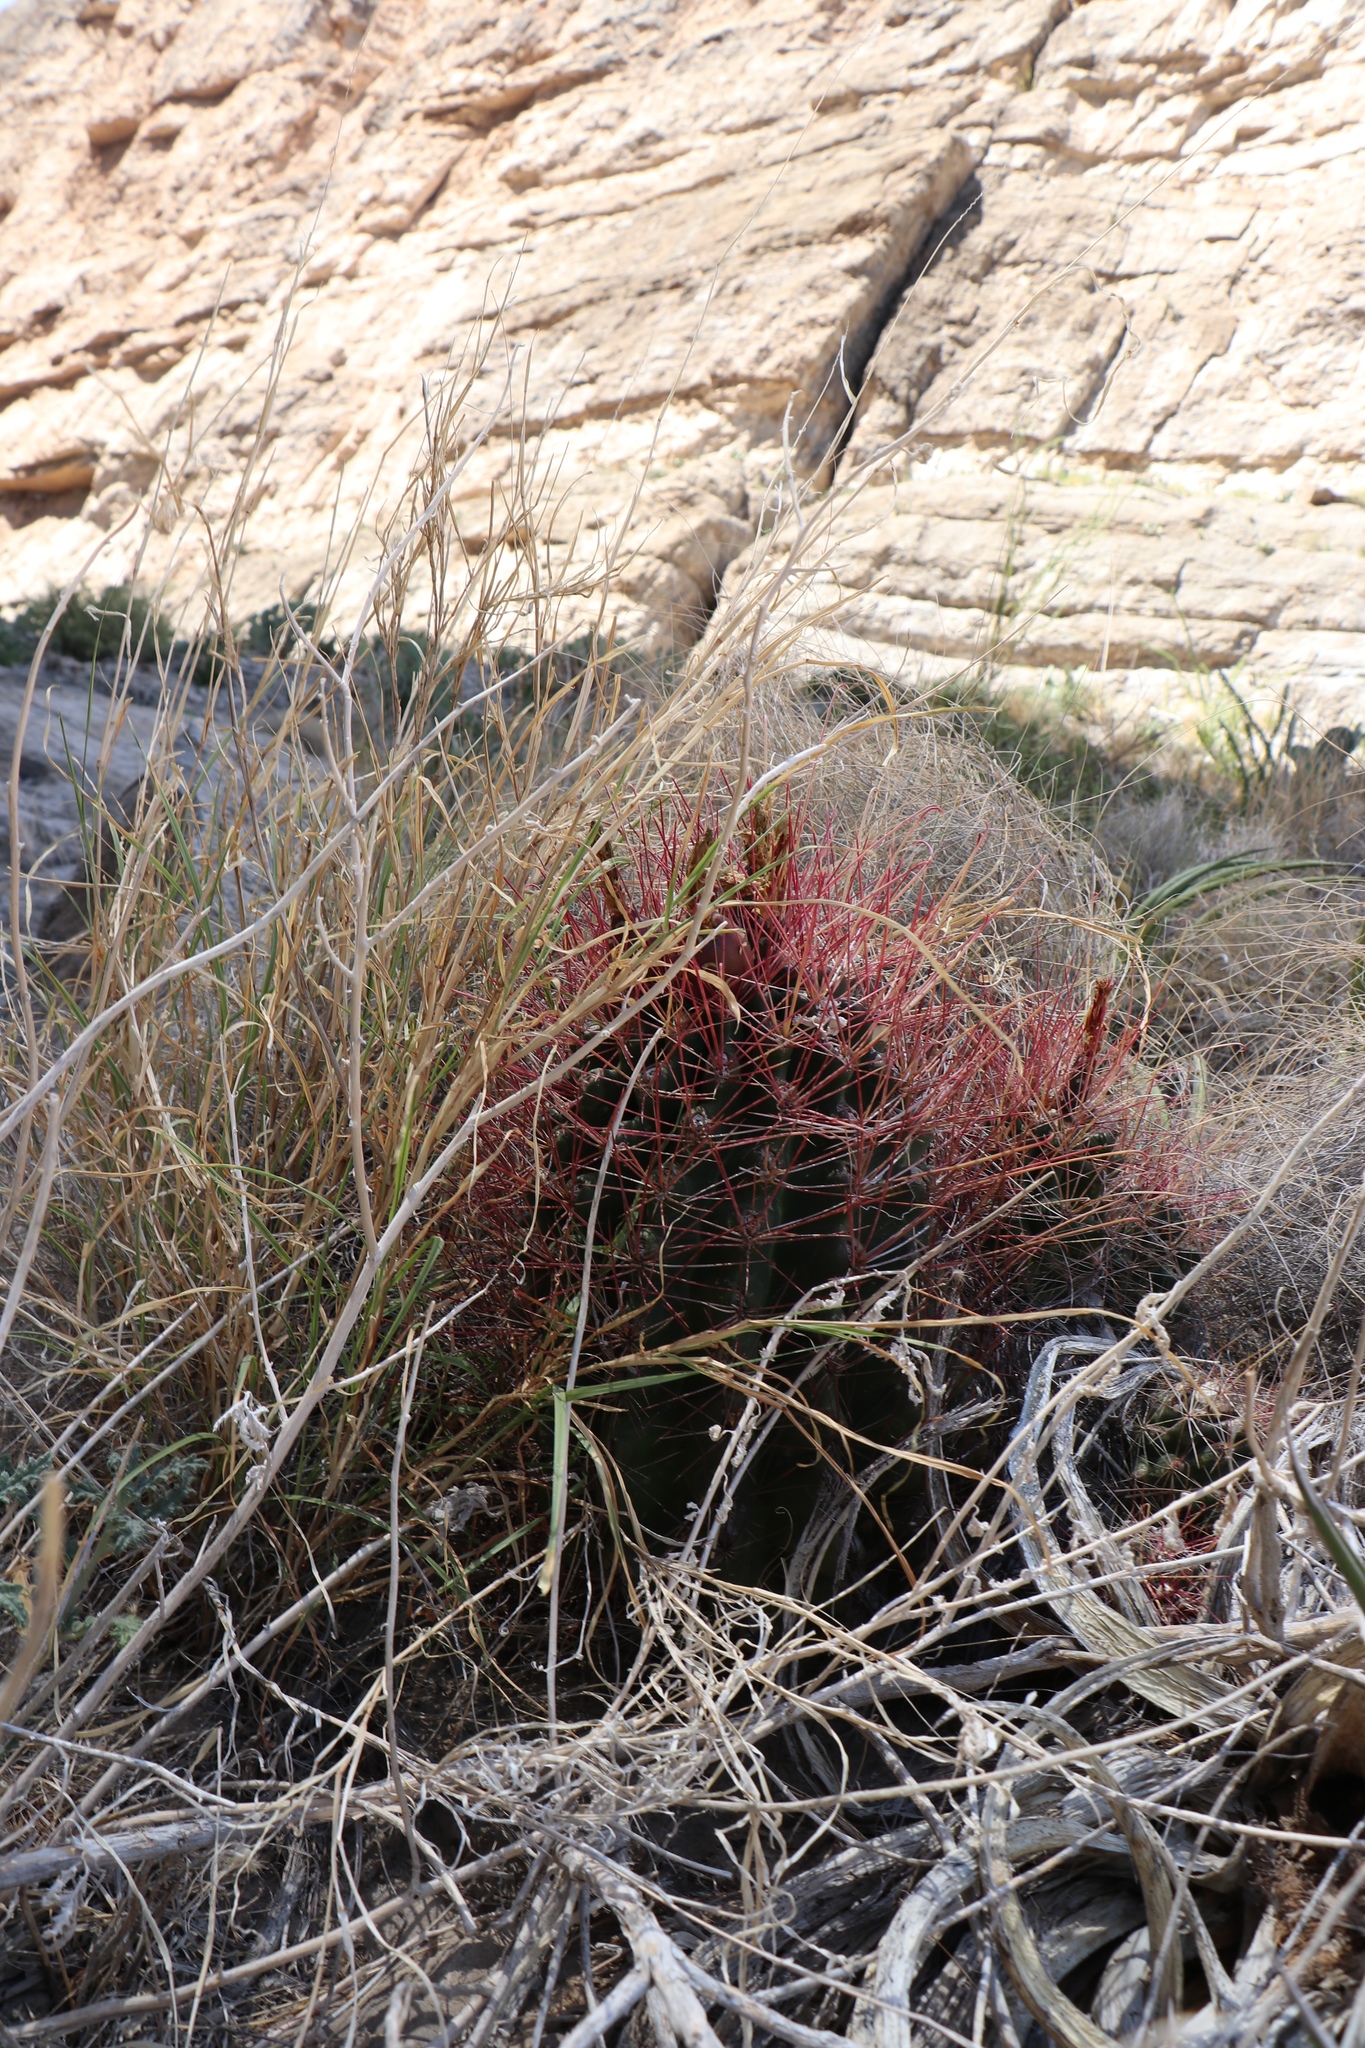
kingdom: Plantae
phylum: Tracheophyta
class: Magnoliopsida
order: Caryophyllales
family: Cactaceae
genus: Bisnaga
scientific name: Bisnaga hamatacantha
